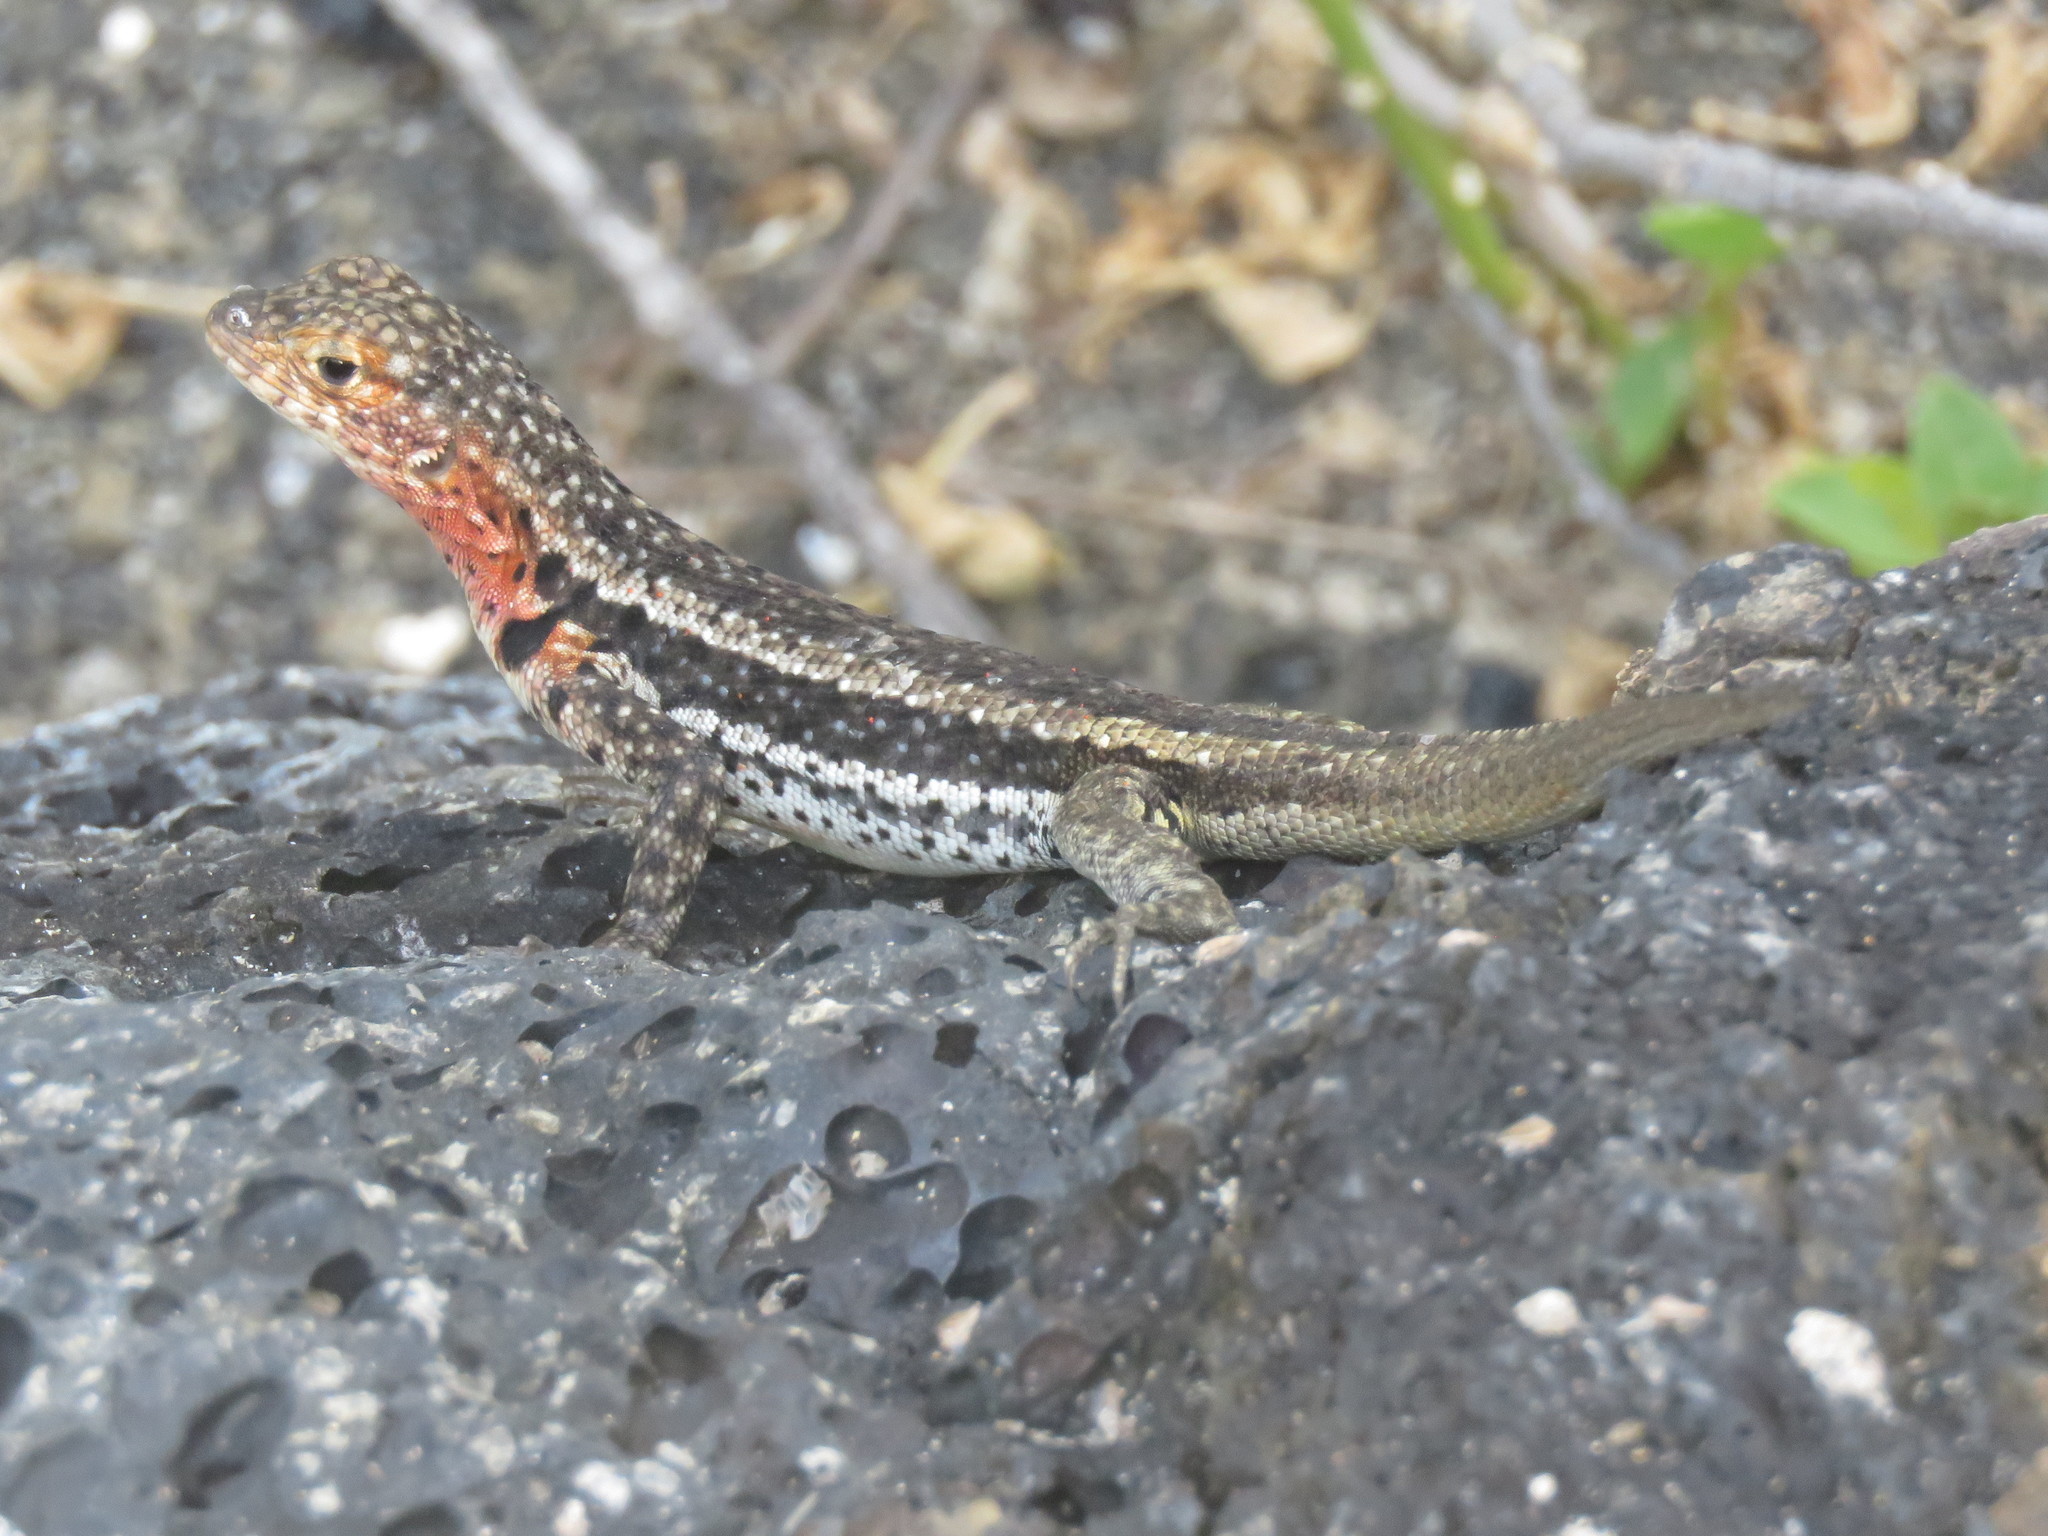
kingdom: Animalia
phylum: Chordata
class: Squamata
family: Tropiduridae
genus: Microlophus
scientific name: Microlophus albemarlensis
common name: Galapagos lava lizard
